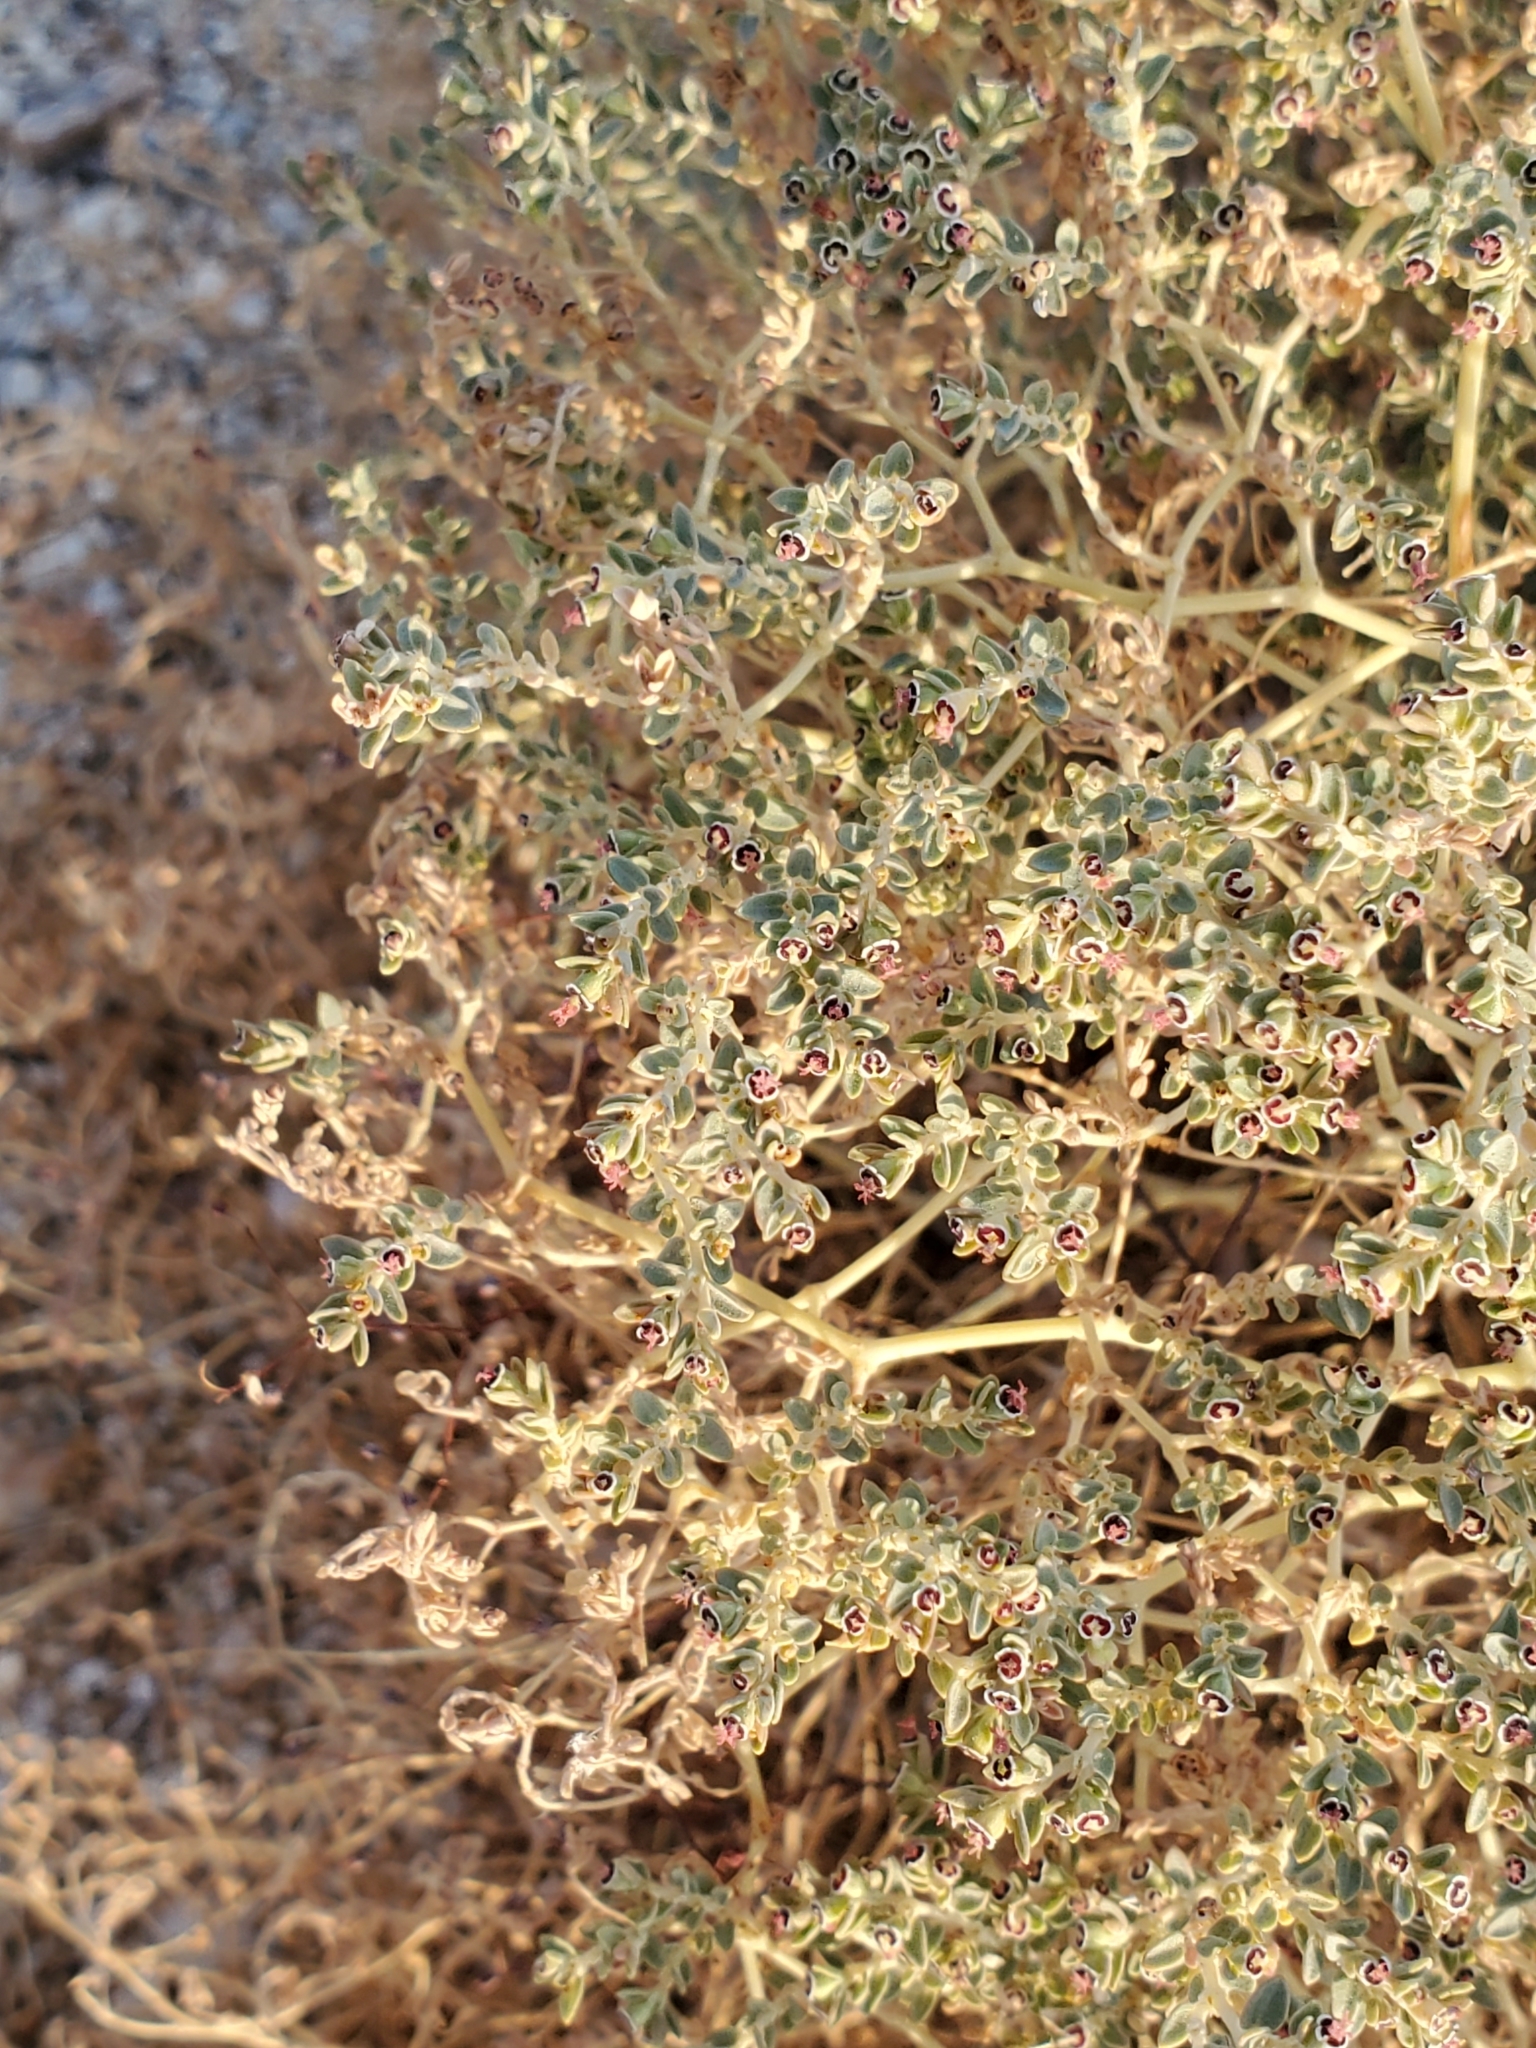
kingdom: Plantae
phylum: Tracheophyta
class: Magnoliopsida
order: Malpighiales
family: Euphorbiaceae
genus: Euphorbia
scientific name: Euphorbia polycarpa
